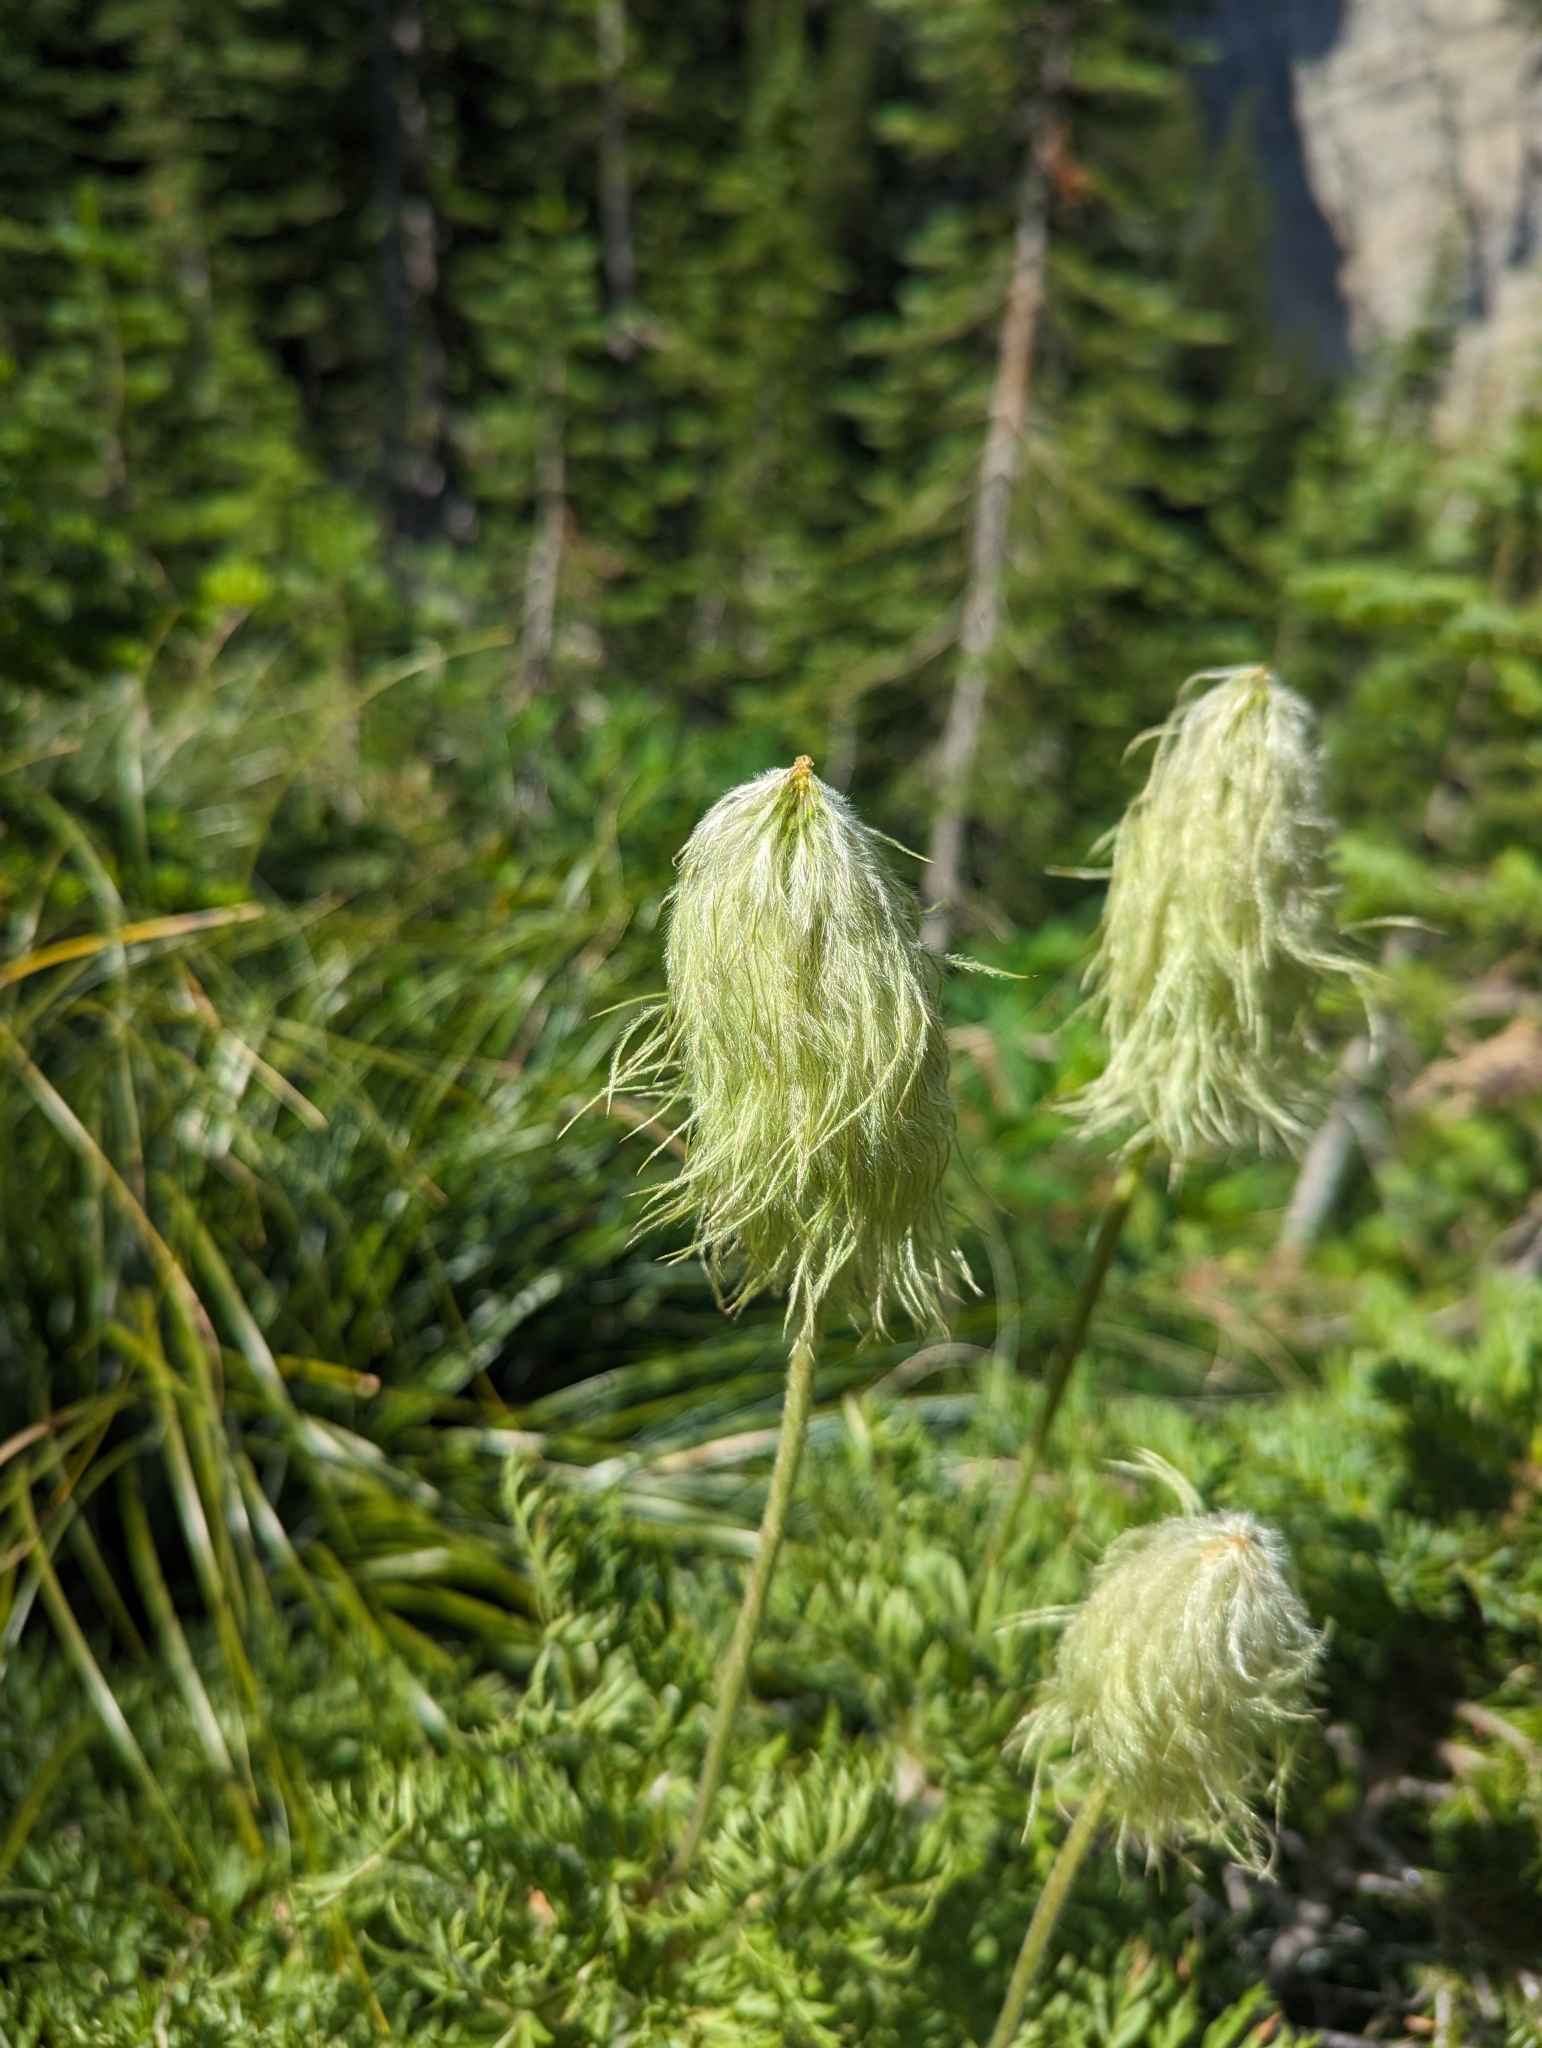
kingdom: Plantae
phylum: Tracheophyta
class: Magnoliopsida
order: Ranunculales
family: Ranunculaceae
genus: Pulsatilla
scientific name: Pulsatilla occidentalis
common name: Mountain pasqueflower
